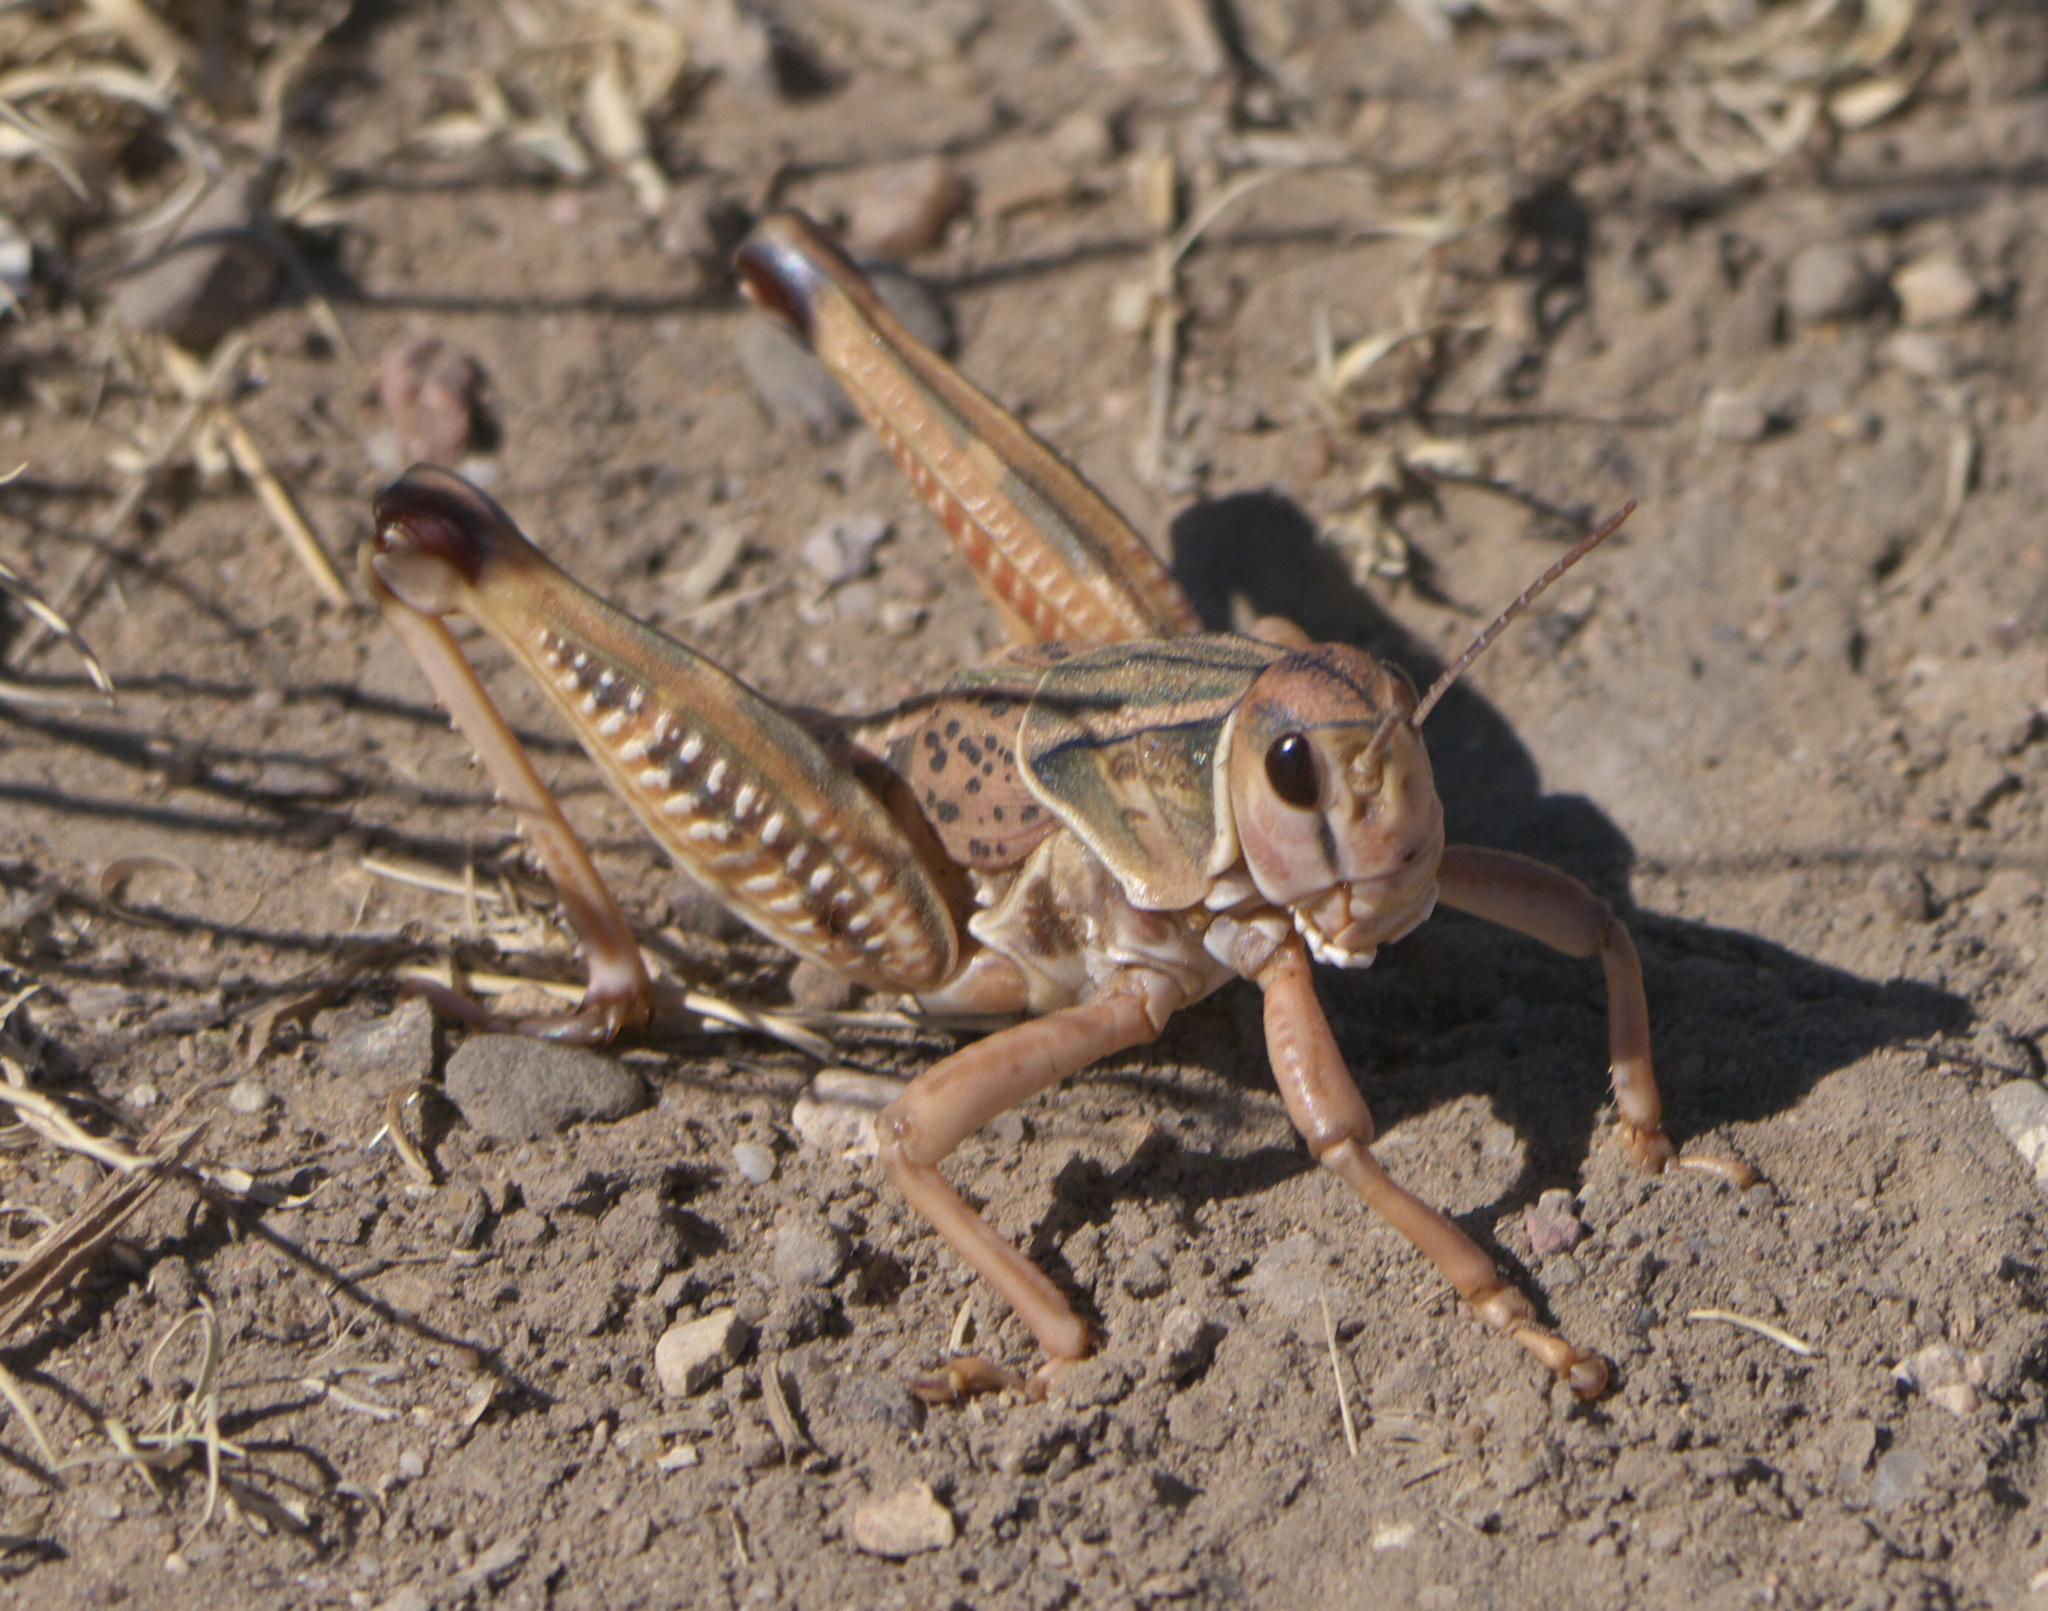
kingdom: Animalia
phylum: Arthropoda
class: Insecta
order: Orthoptera
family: Romaleidae
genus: Brachystola
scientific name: Brachystola magna
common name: Plains lubber grasshopper
